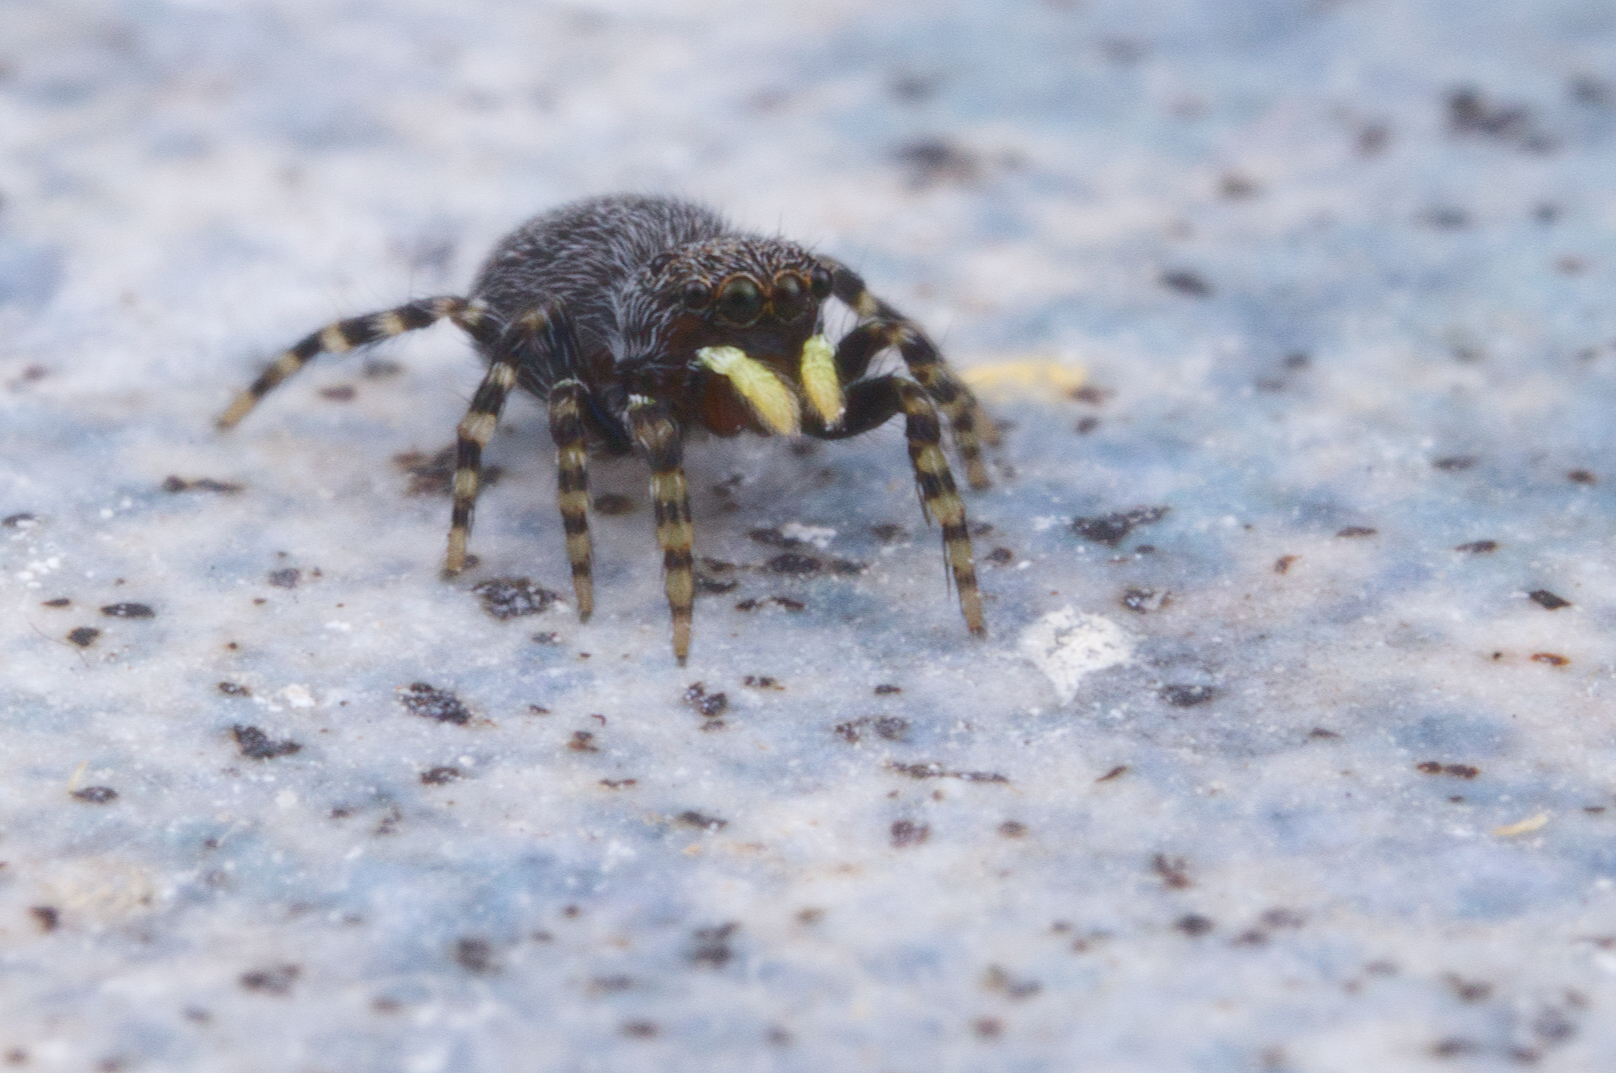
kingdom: Animalia
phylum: Arthropoda
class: Arachnida
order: Araneae
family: Salticidae
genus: Talavera
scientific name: Talavera minuta
